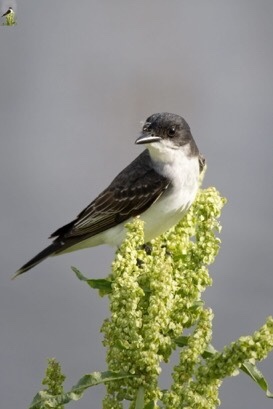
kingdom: Animalia
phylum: Chordata
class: Aves
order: Passeriformes
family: Tyrannidae
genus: Tyrannus
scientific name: Tyrannus tyrannus
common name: Eastern kingbird
